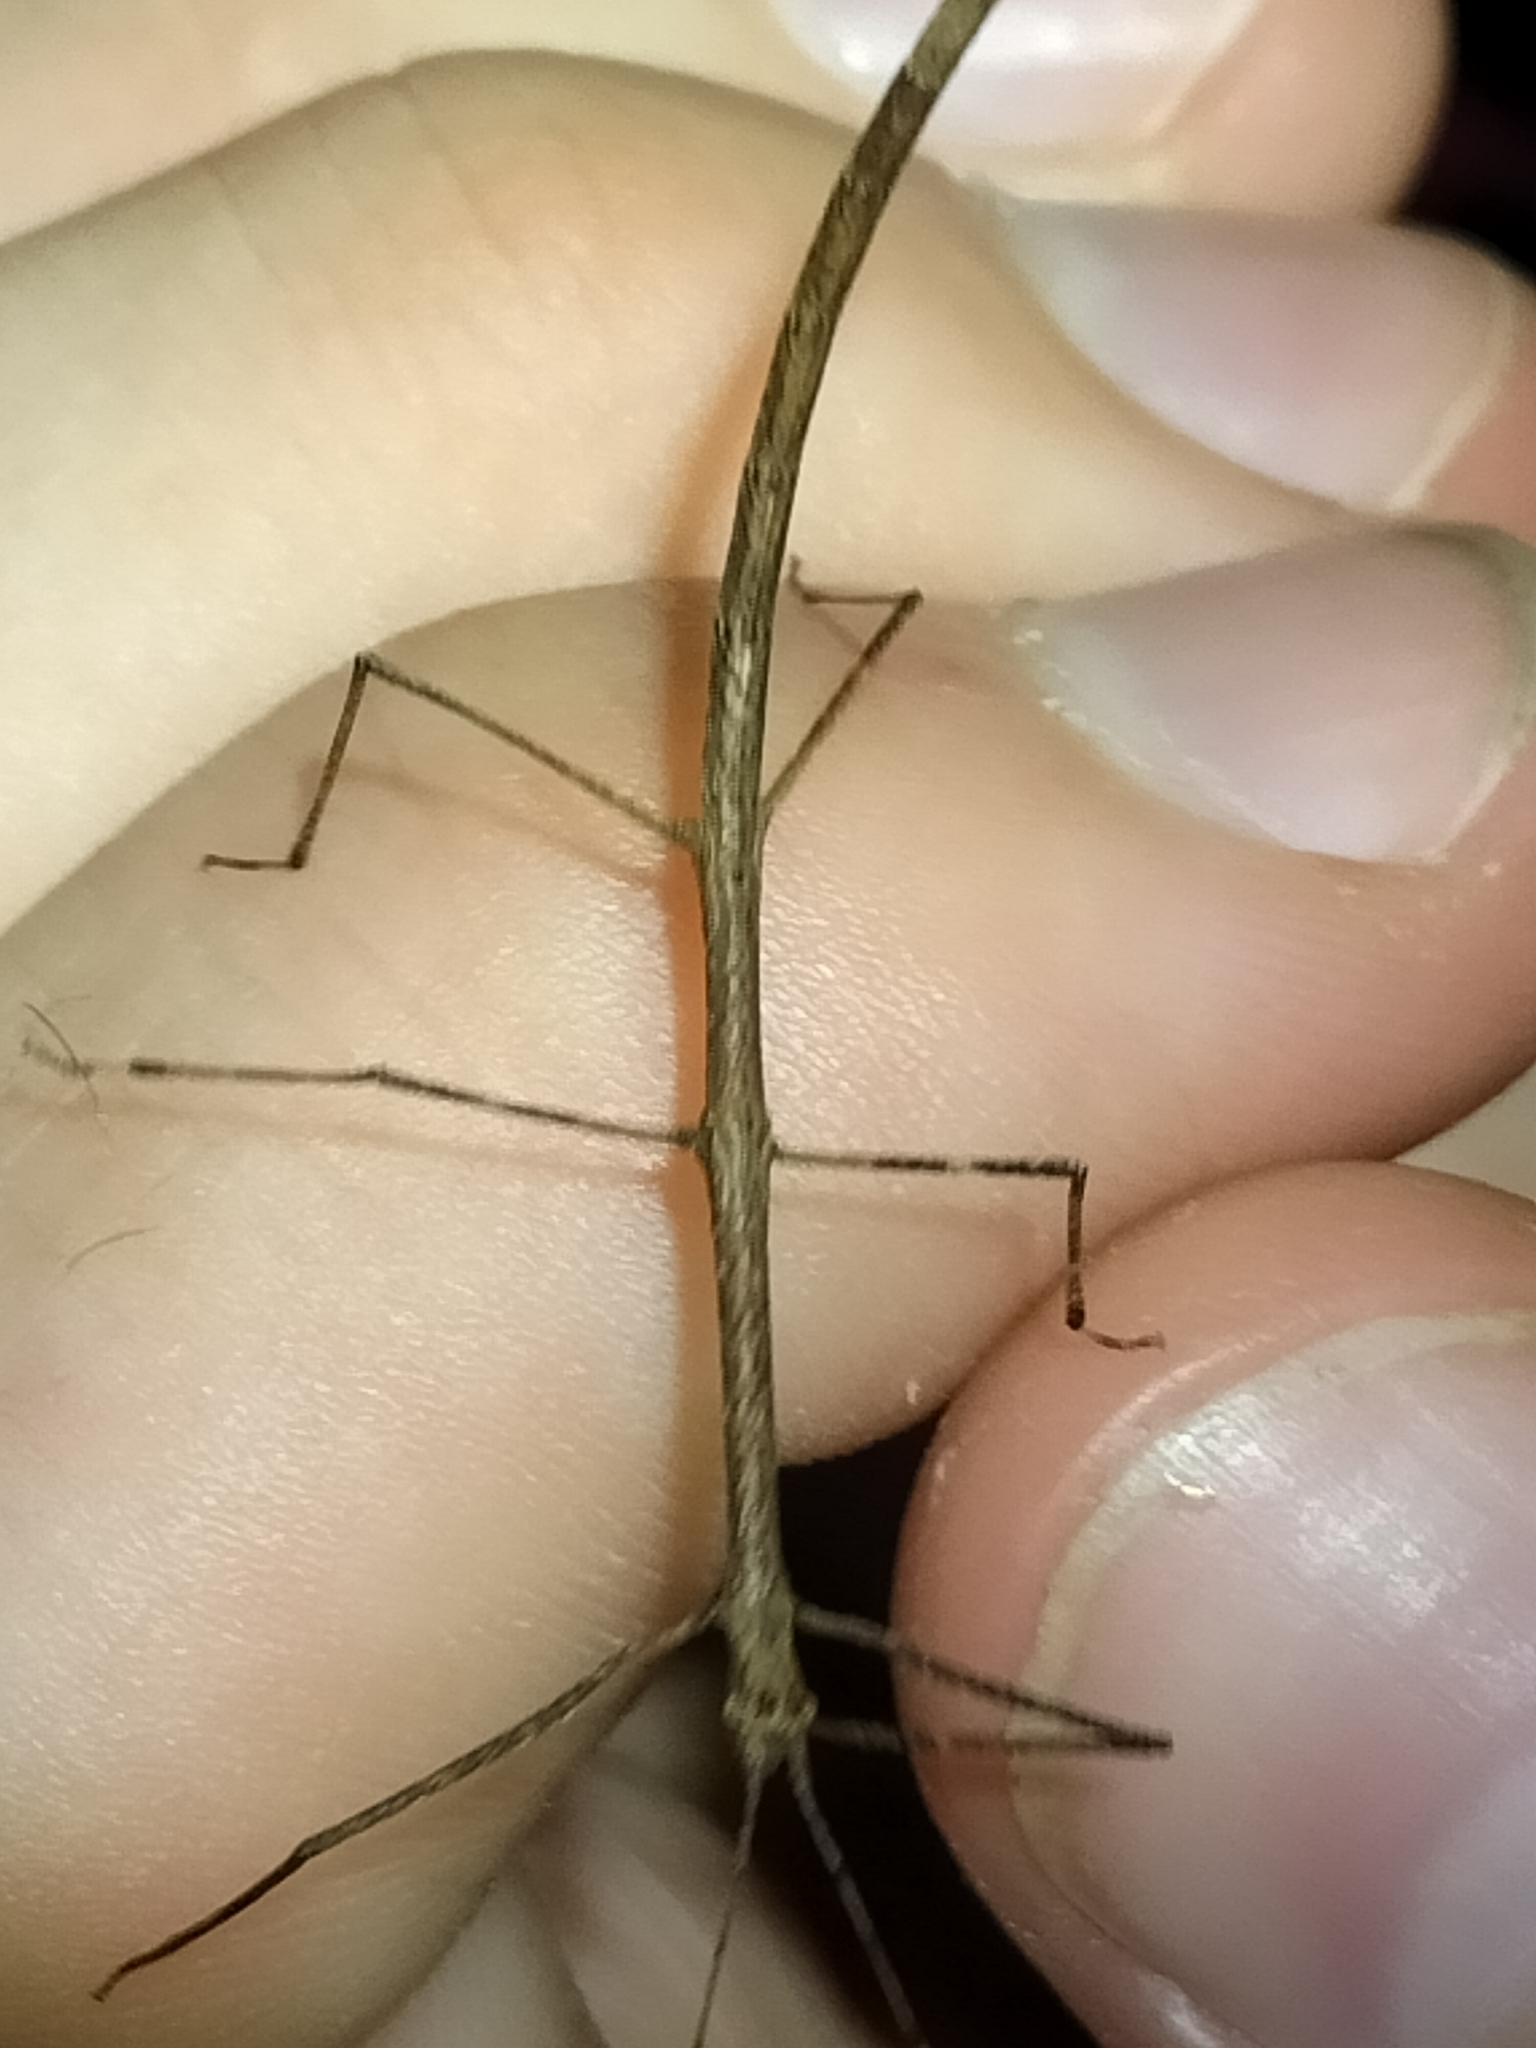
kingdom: Animalia
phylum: Arthropoda
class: Insecta
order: Phasmida
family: Lonchodidae
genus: Austrocarausius
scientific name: Austrocarausius
